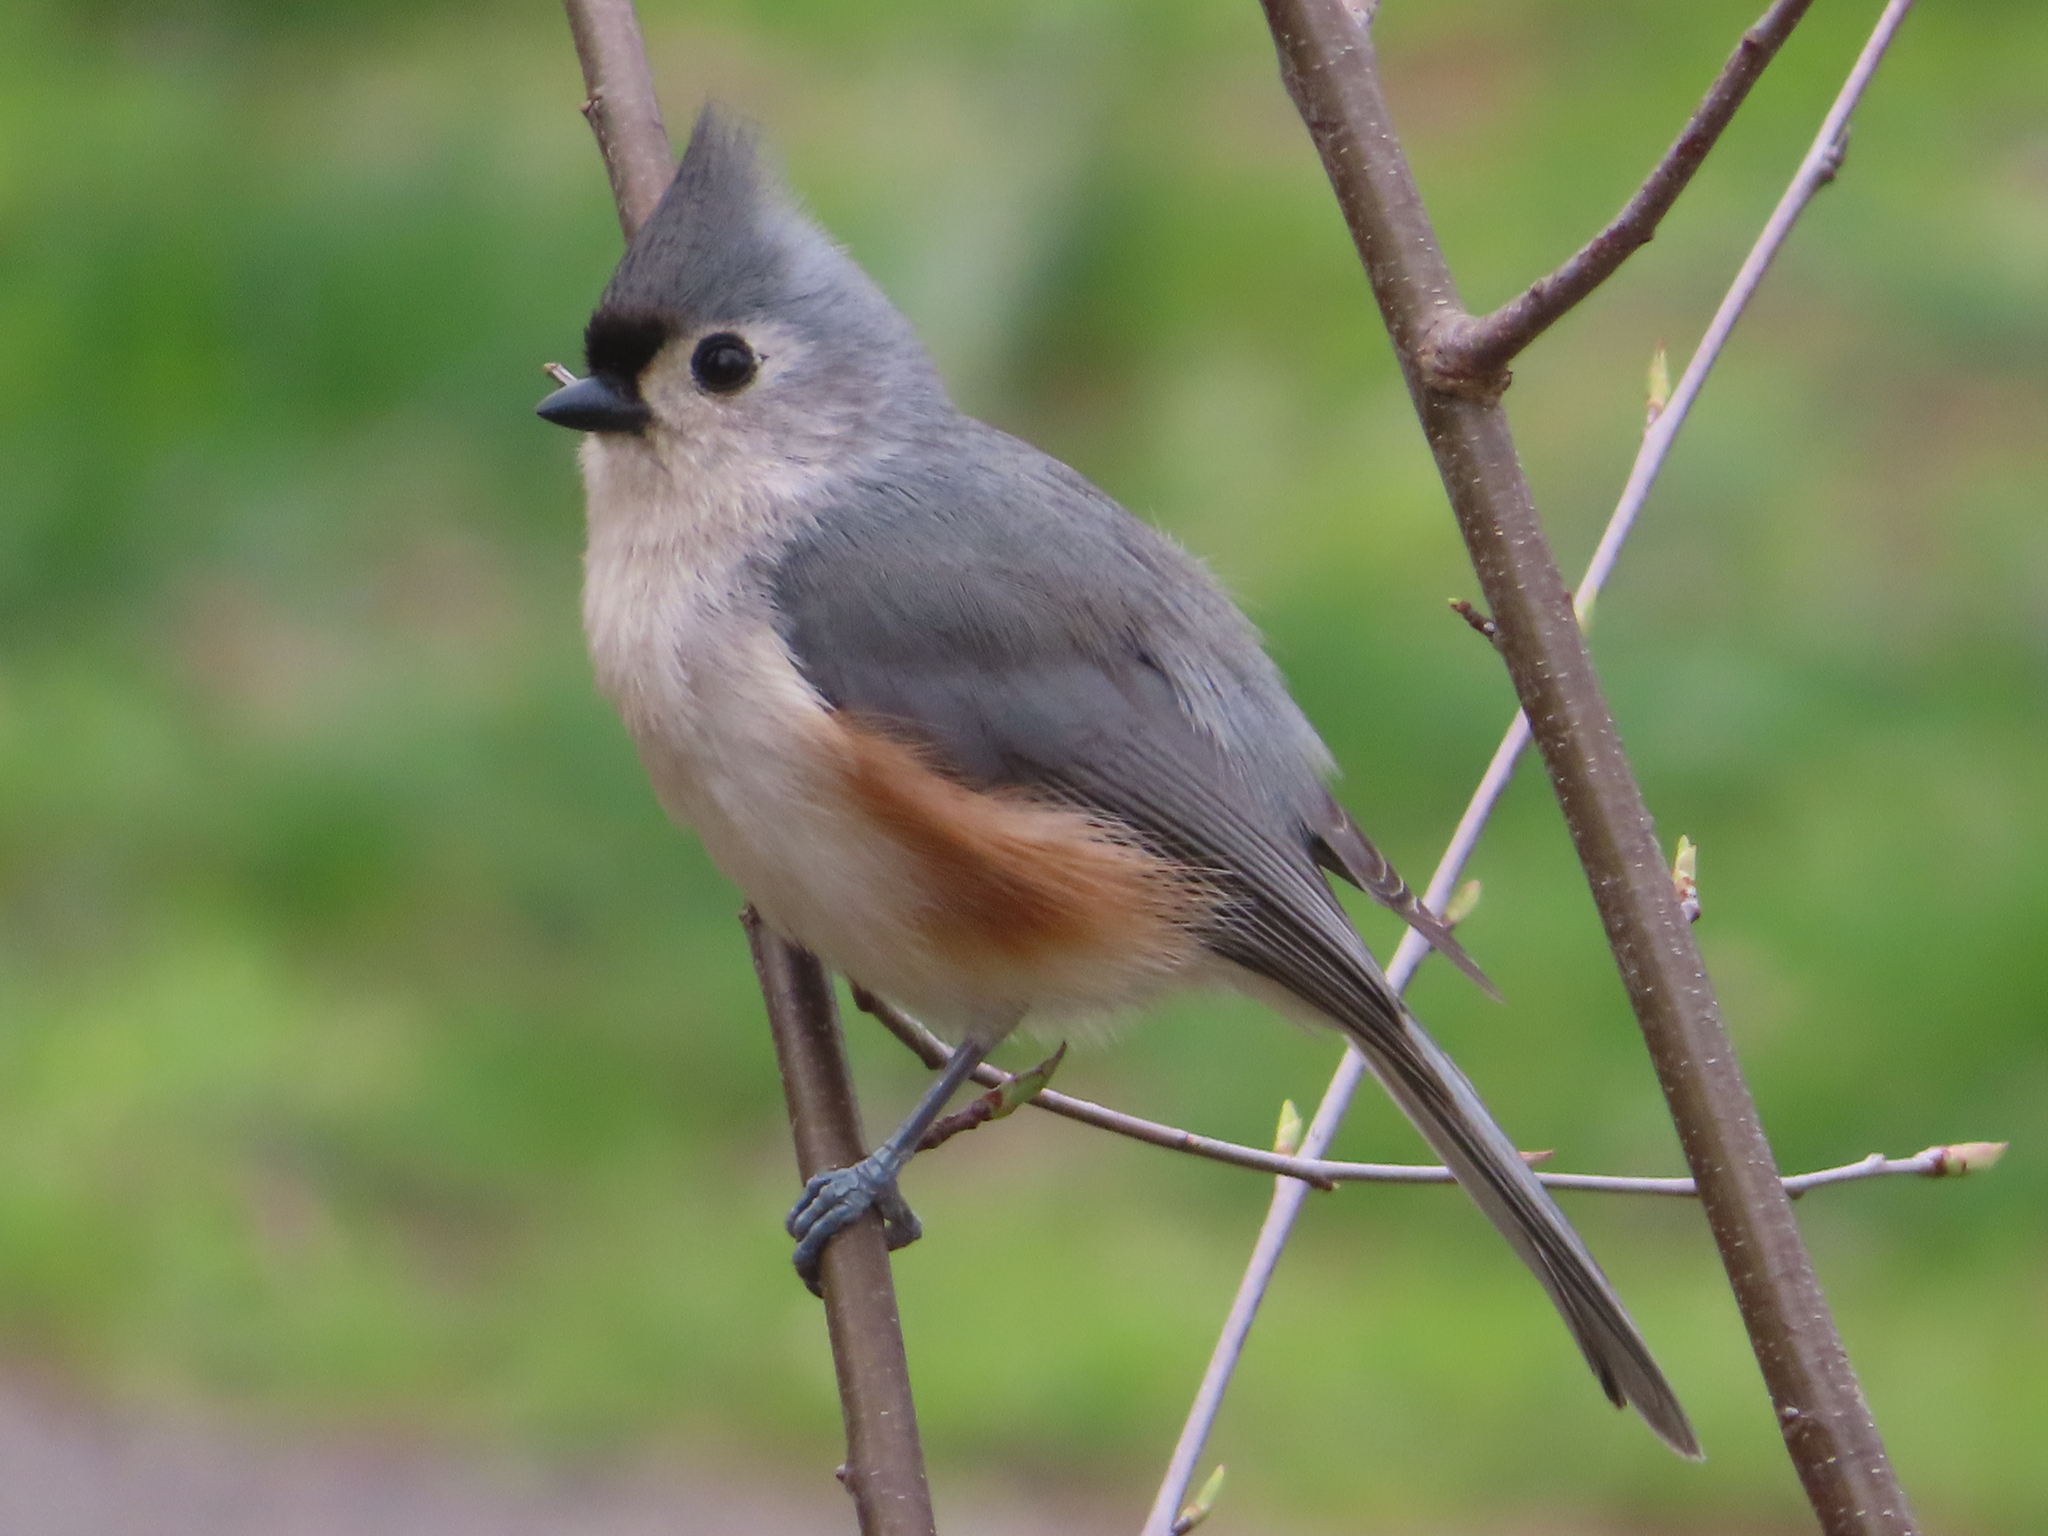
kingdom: Animalia
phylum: Chordata
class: Aves
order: Passeriformes
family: Paridae
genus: Baeolophus
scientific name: Baeolophus bicolor
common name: Tufted titmouse
